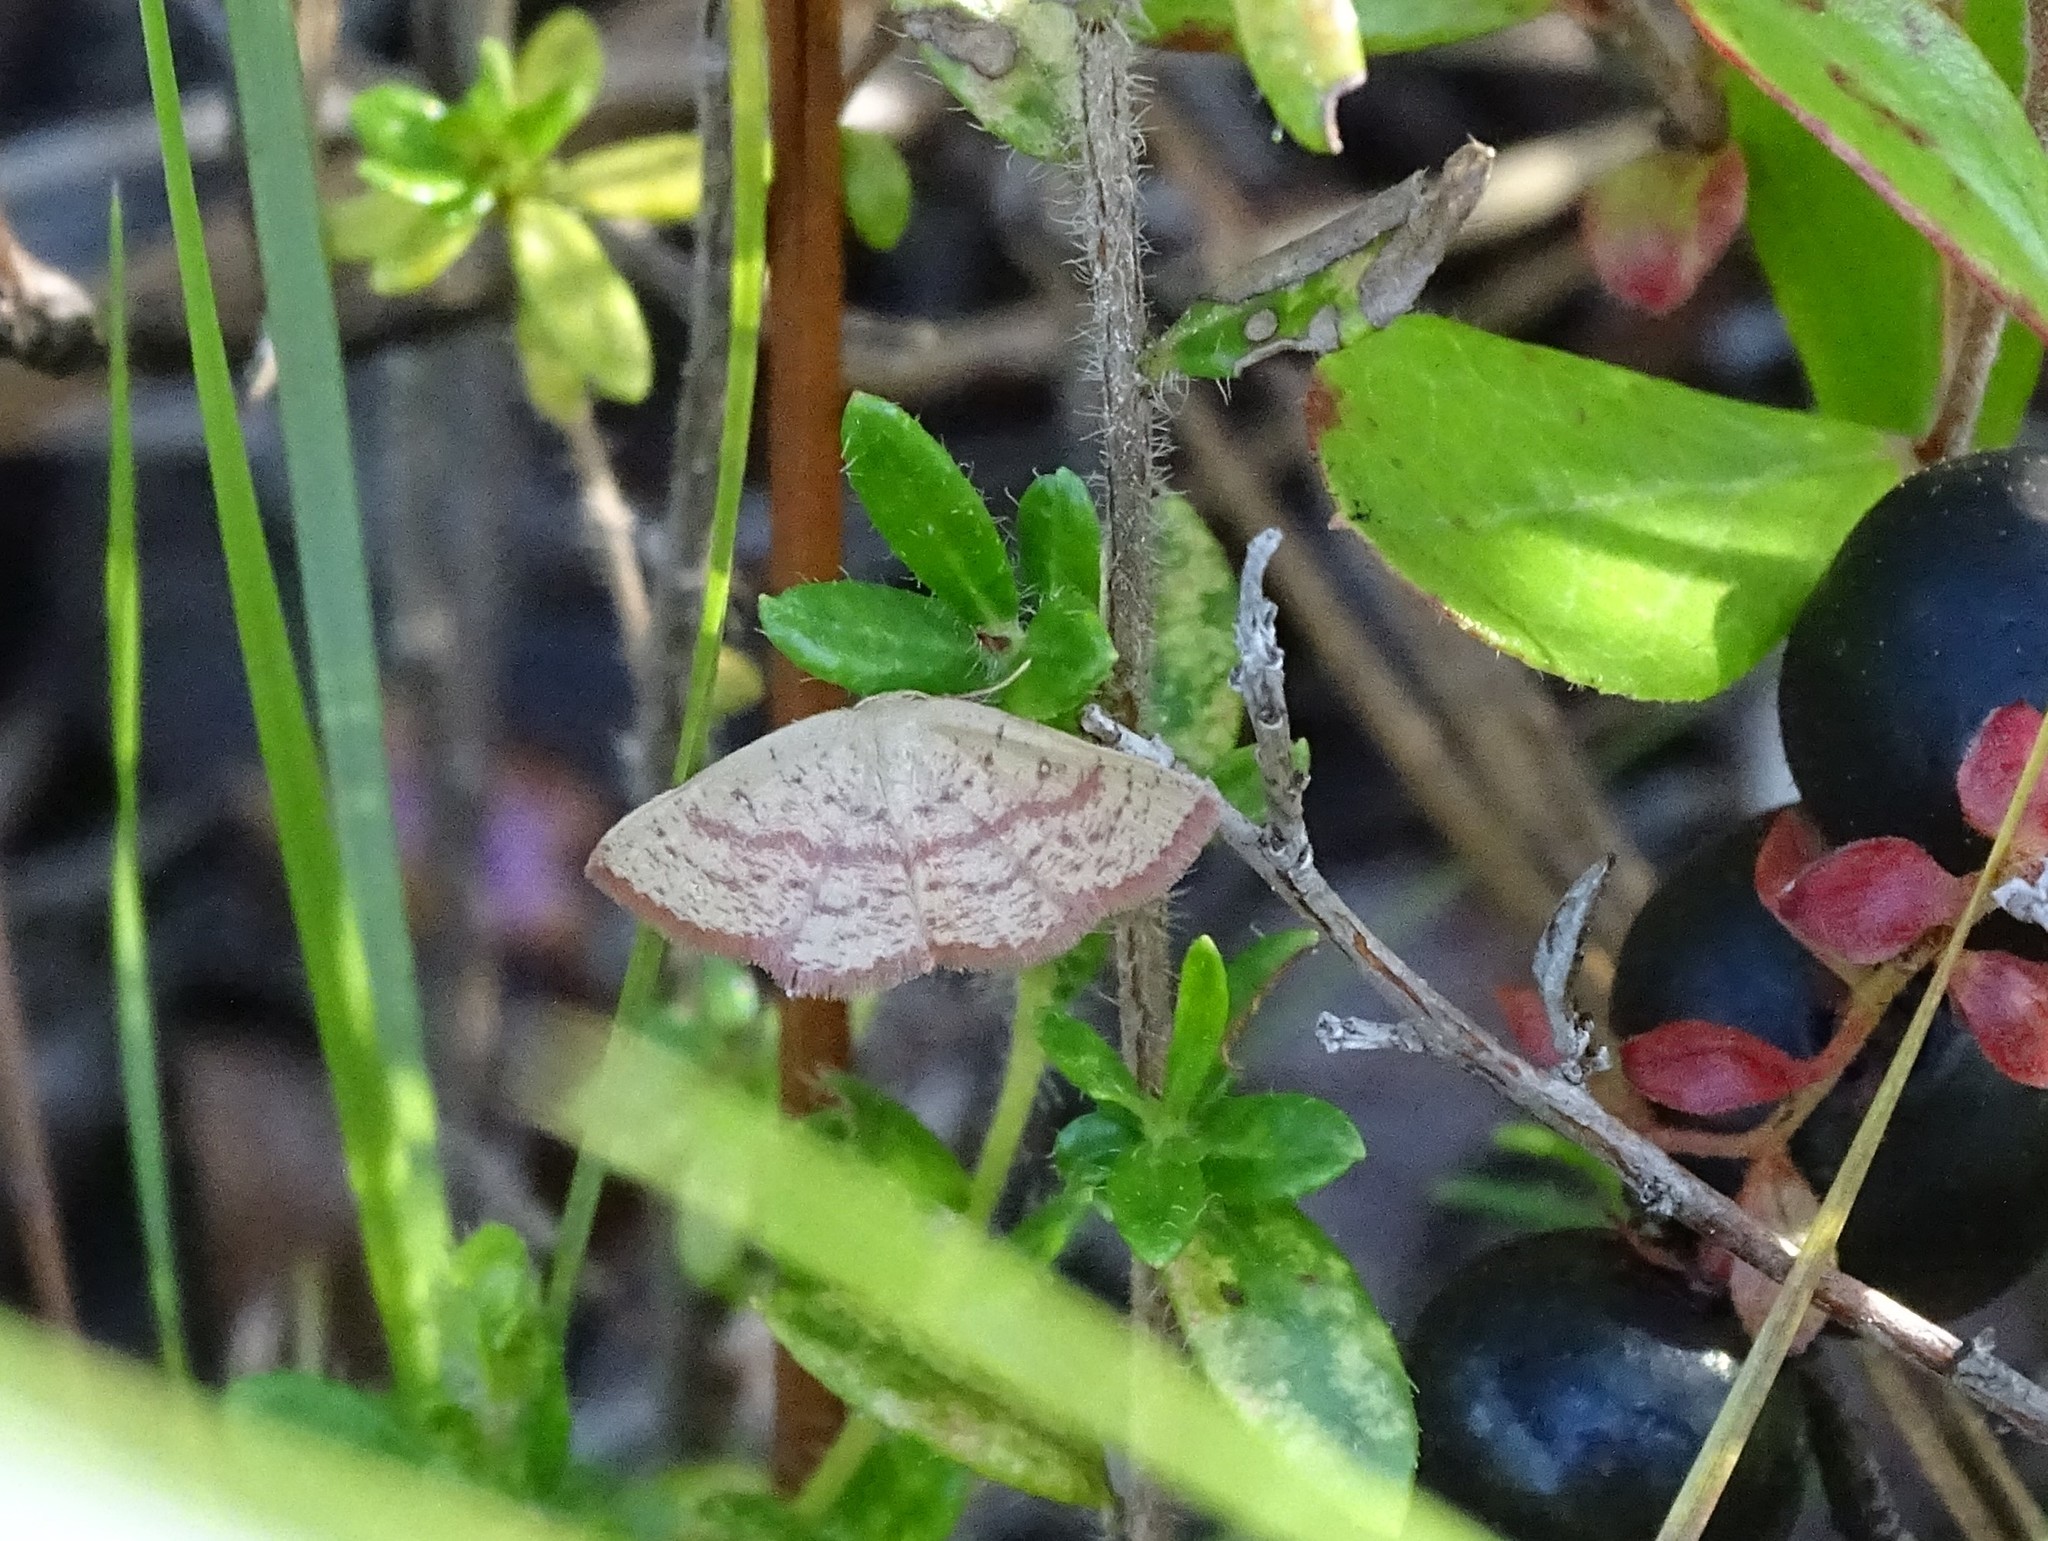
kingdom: Animalia
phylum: Arthropoda
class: Insecta
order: Lepidoptera
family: Geometridae
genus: Cyclophora
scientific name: Cyclophora culicaria
